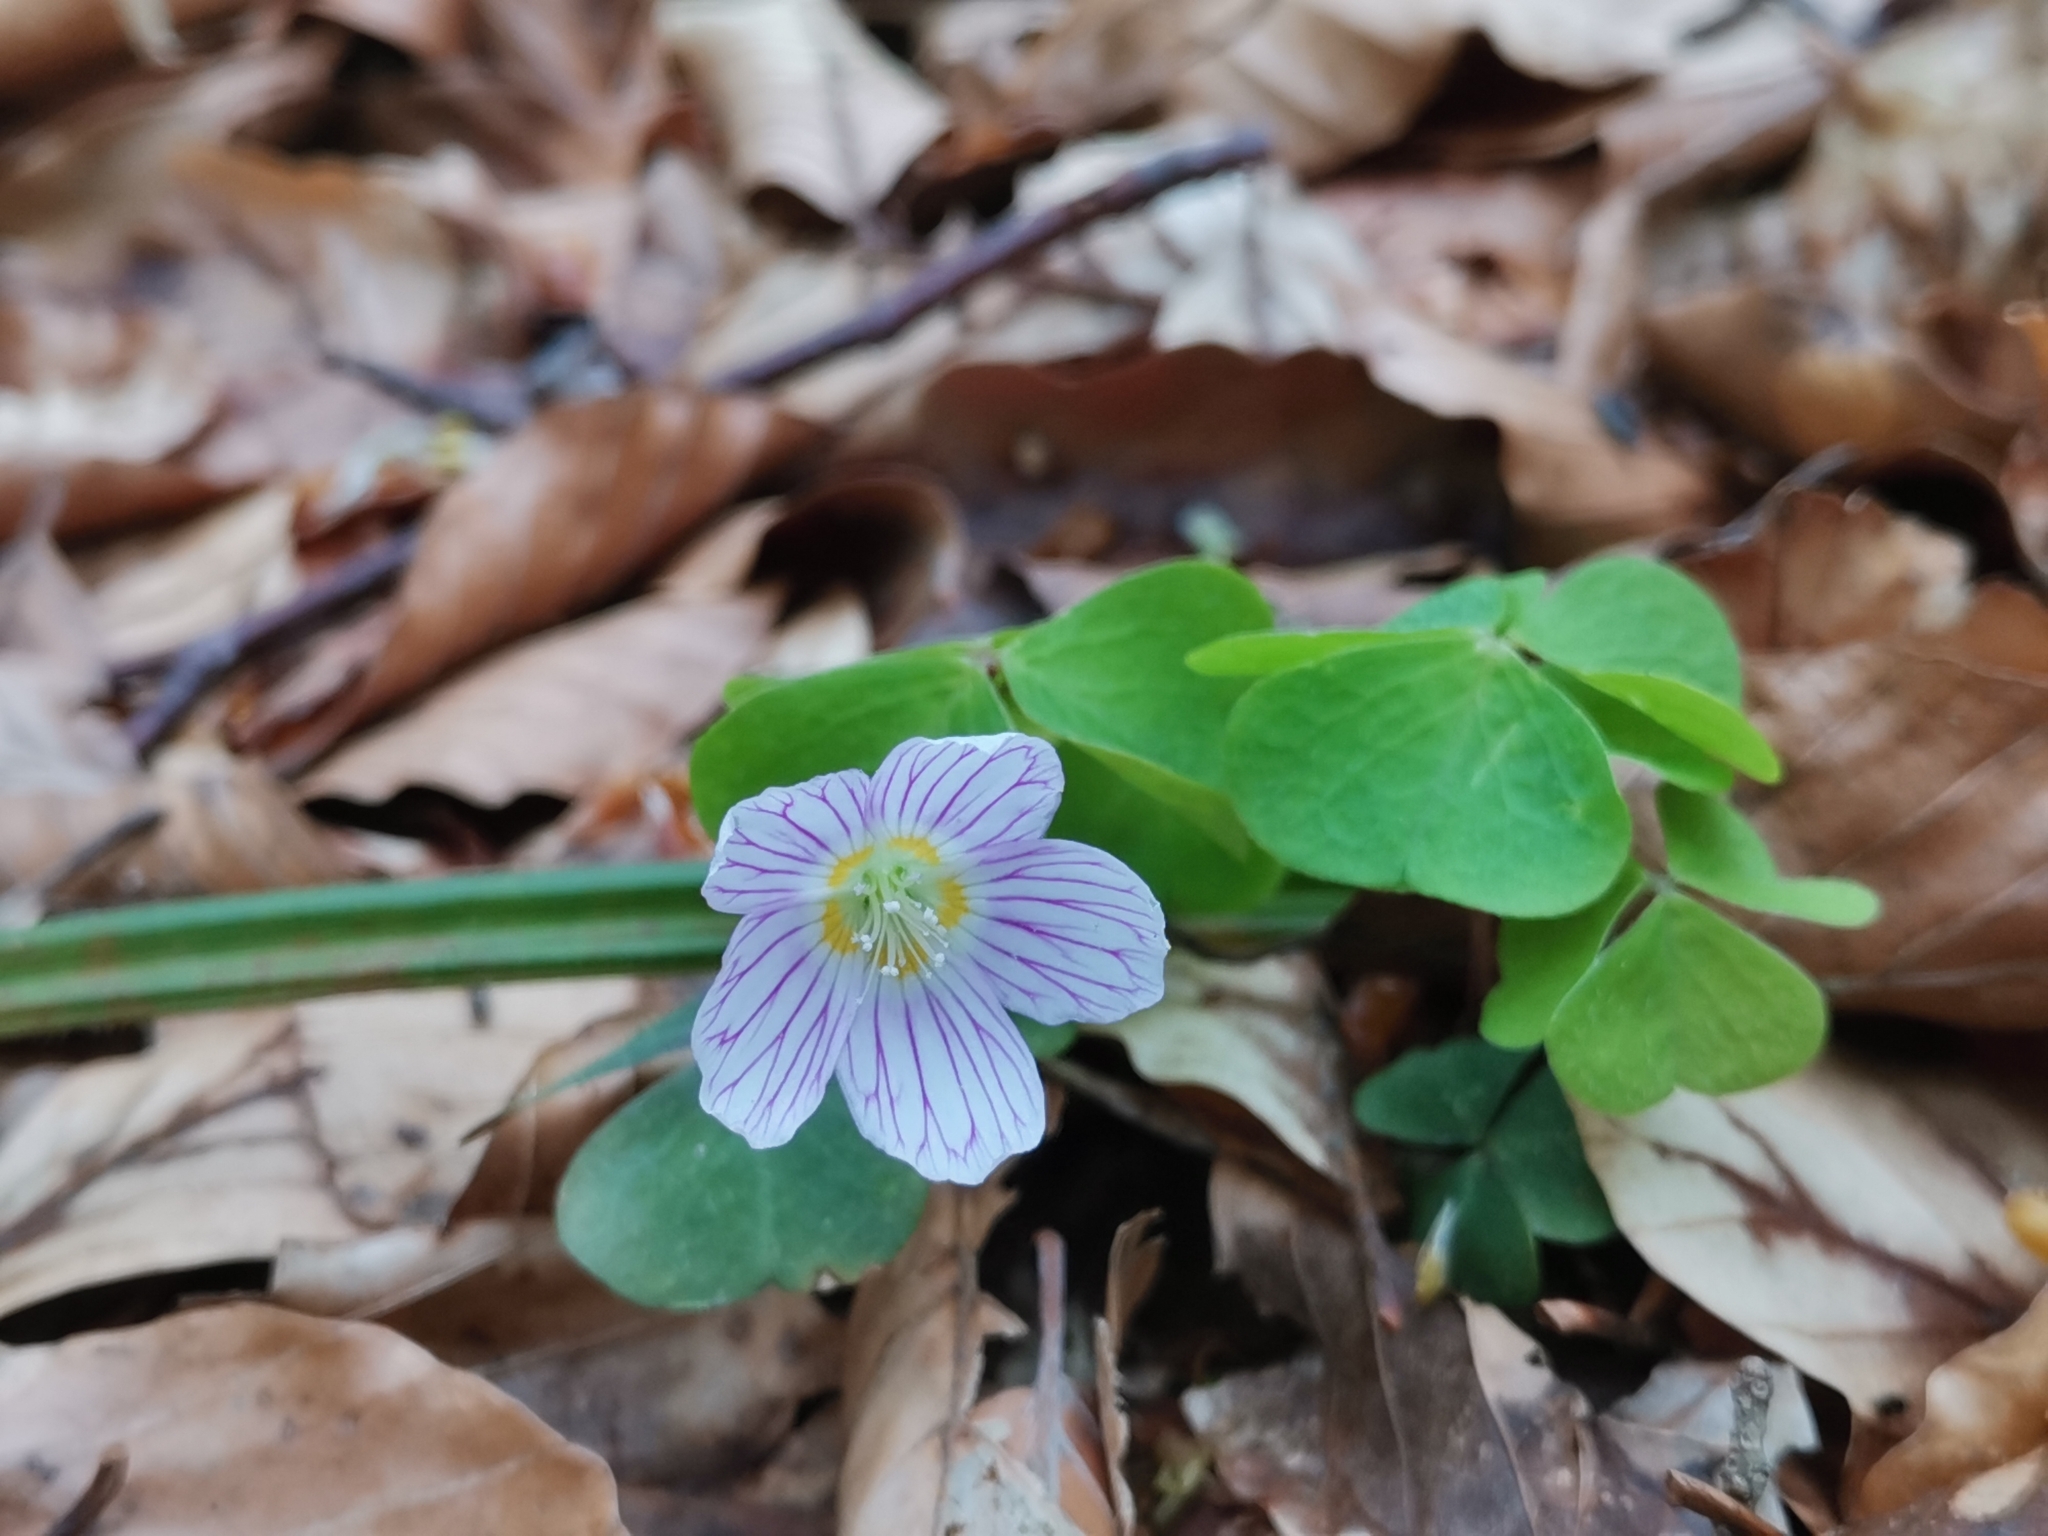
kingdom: Plantae
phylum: Tracheophyta
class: Magnoliopsida
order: Oxalidales
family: Oxalidaceae
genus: Oxalis
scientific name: Oxalis acetosella
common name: Wood-sorrel
